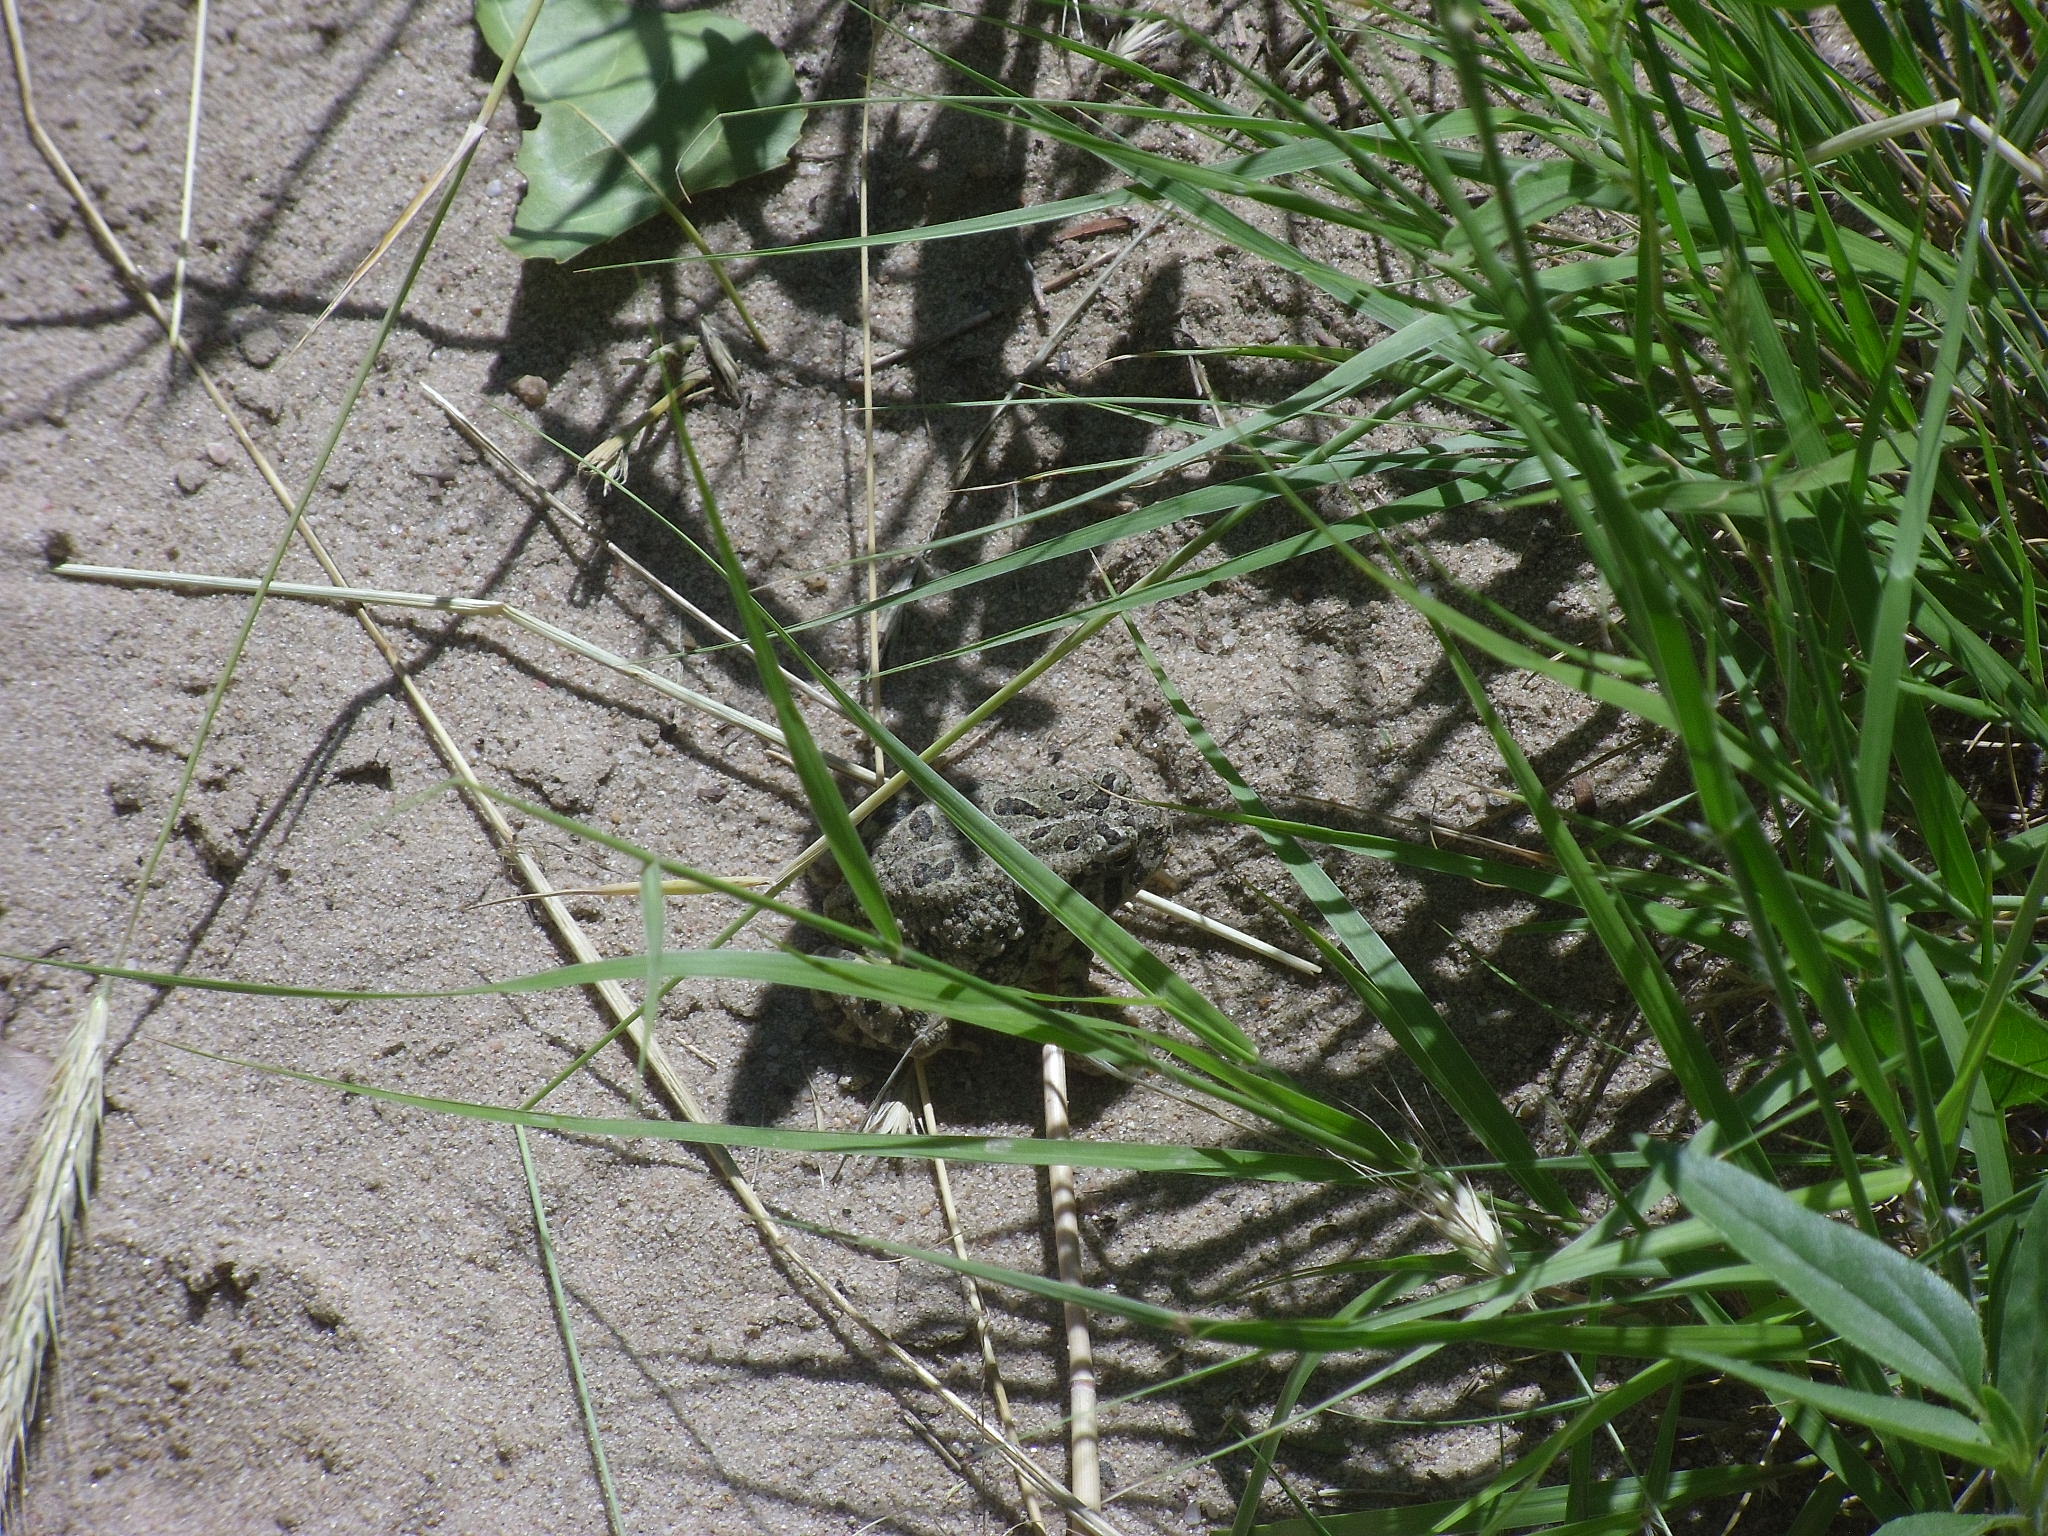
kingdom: Animalia
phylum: Chordata
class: Amphibia
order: Anura
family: Bufonidae
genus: Anaxyrus
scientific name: Anaxyrus woodhousii
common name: Woodhouse's toad
